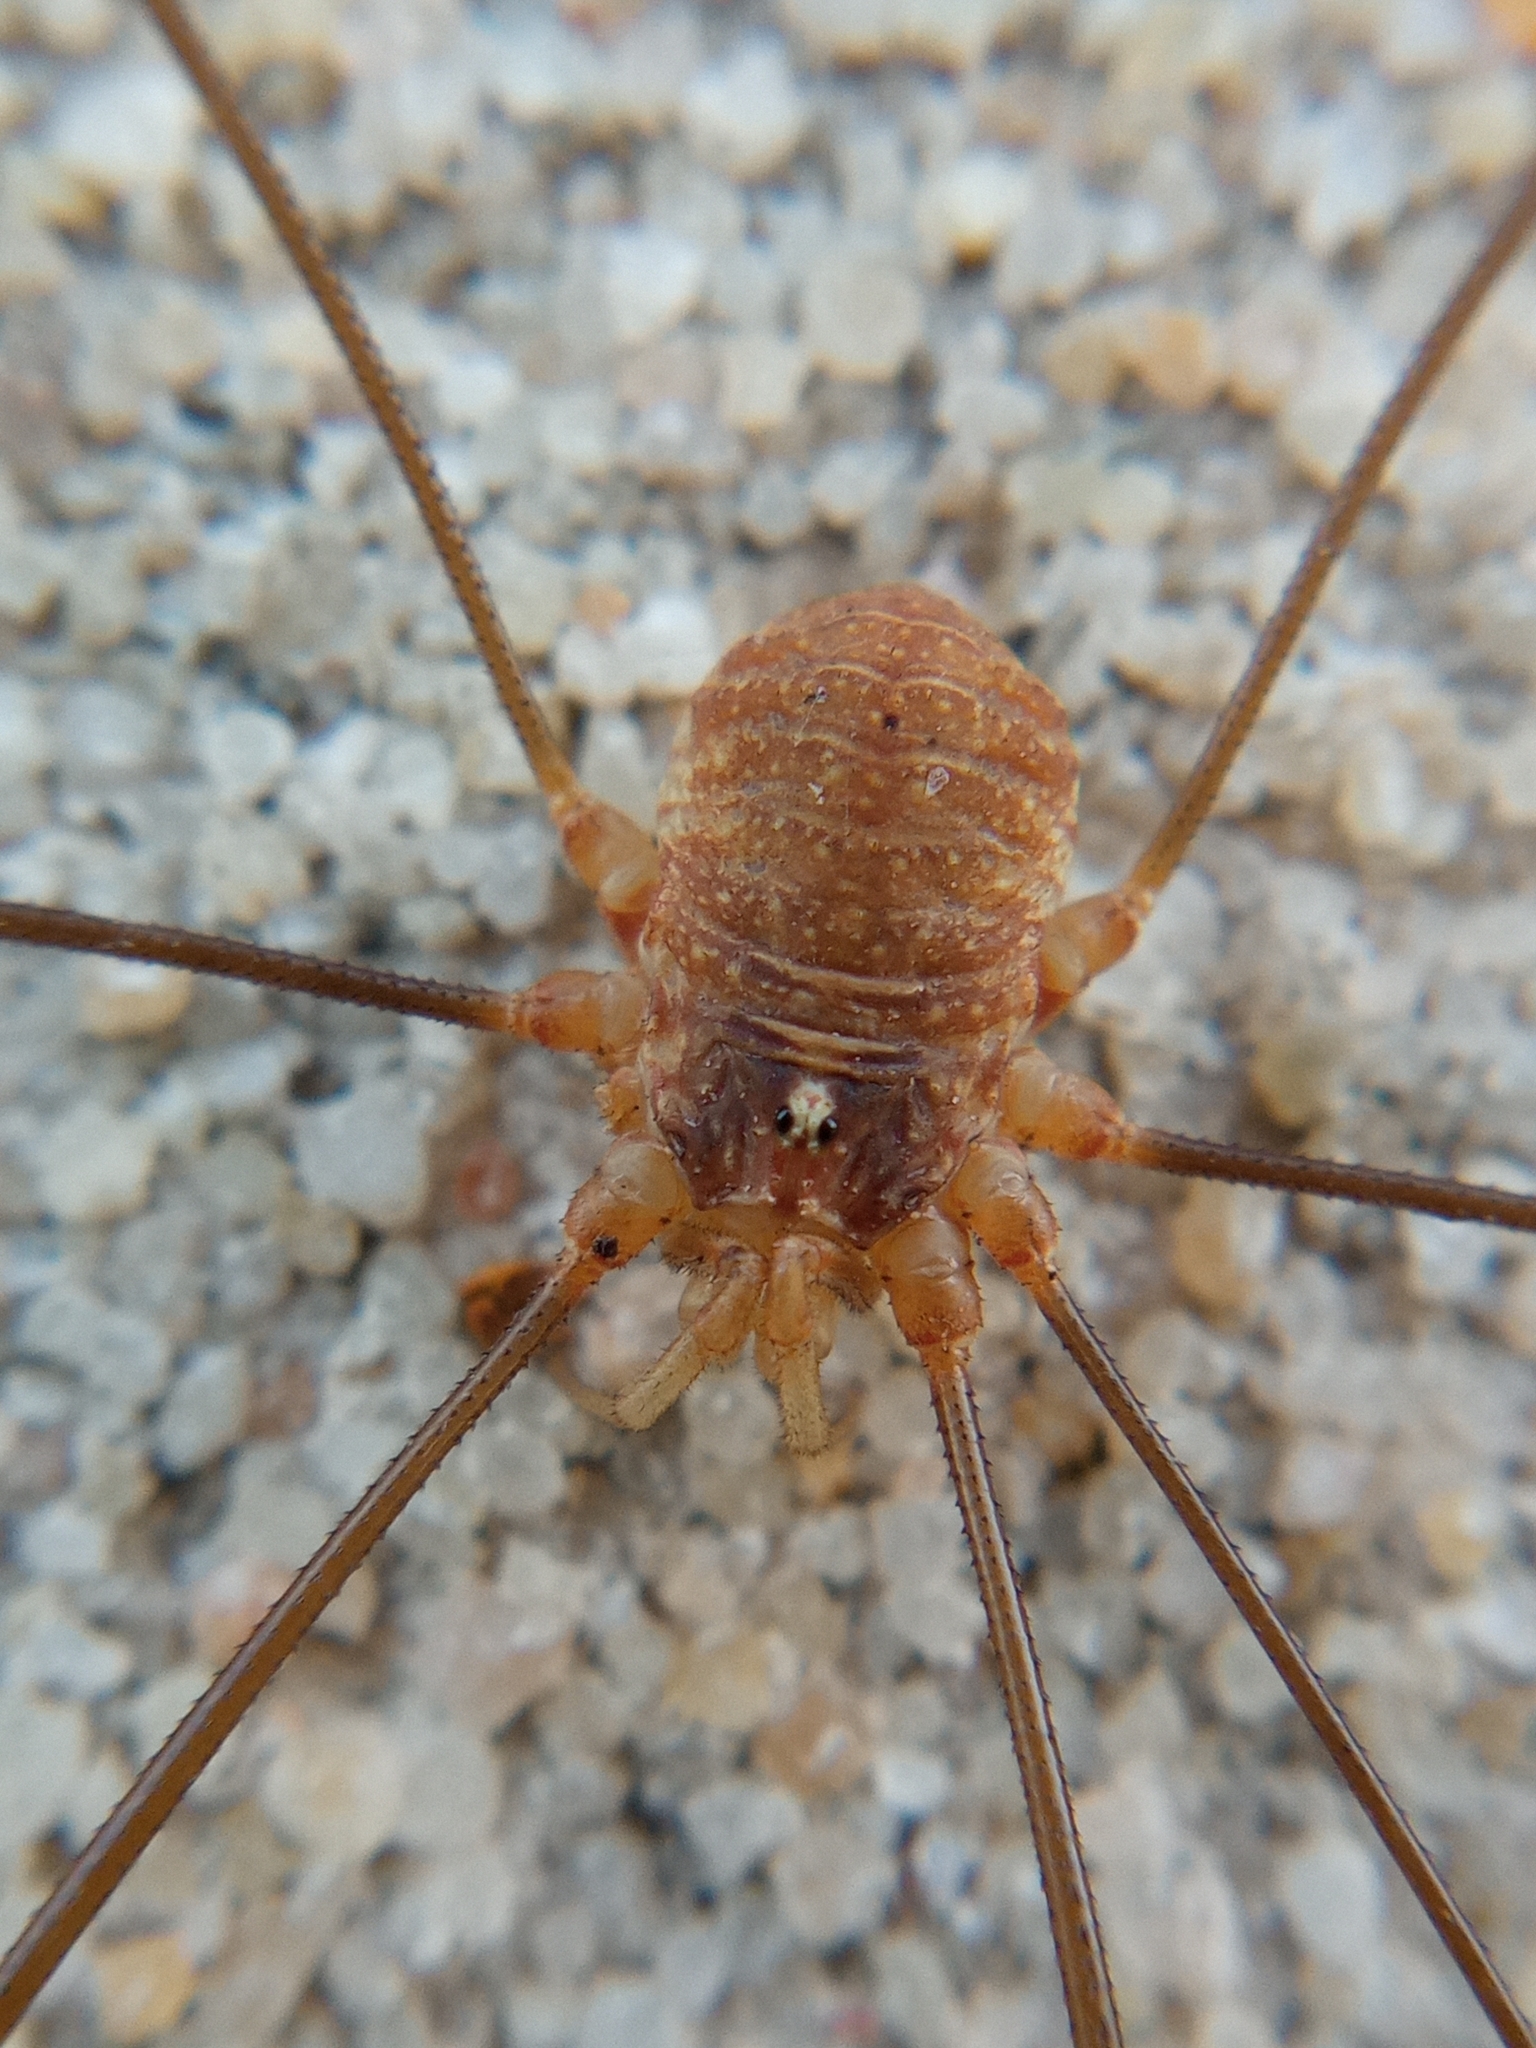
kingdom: Animalia
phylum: Arthropoda
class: Arachnida
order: Opiliones
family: Phalangiidae
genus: Opilio
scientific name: Opilio canestrinii
